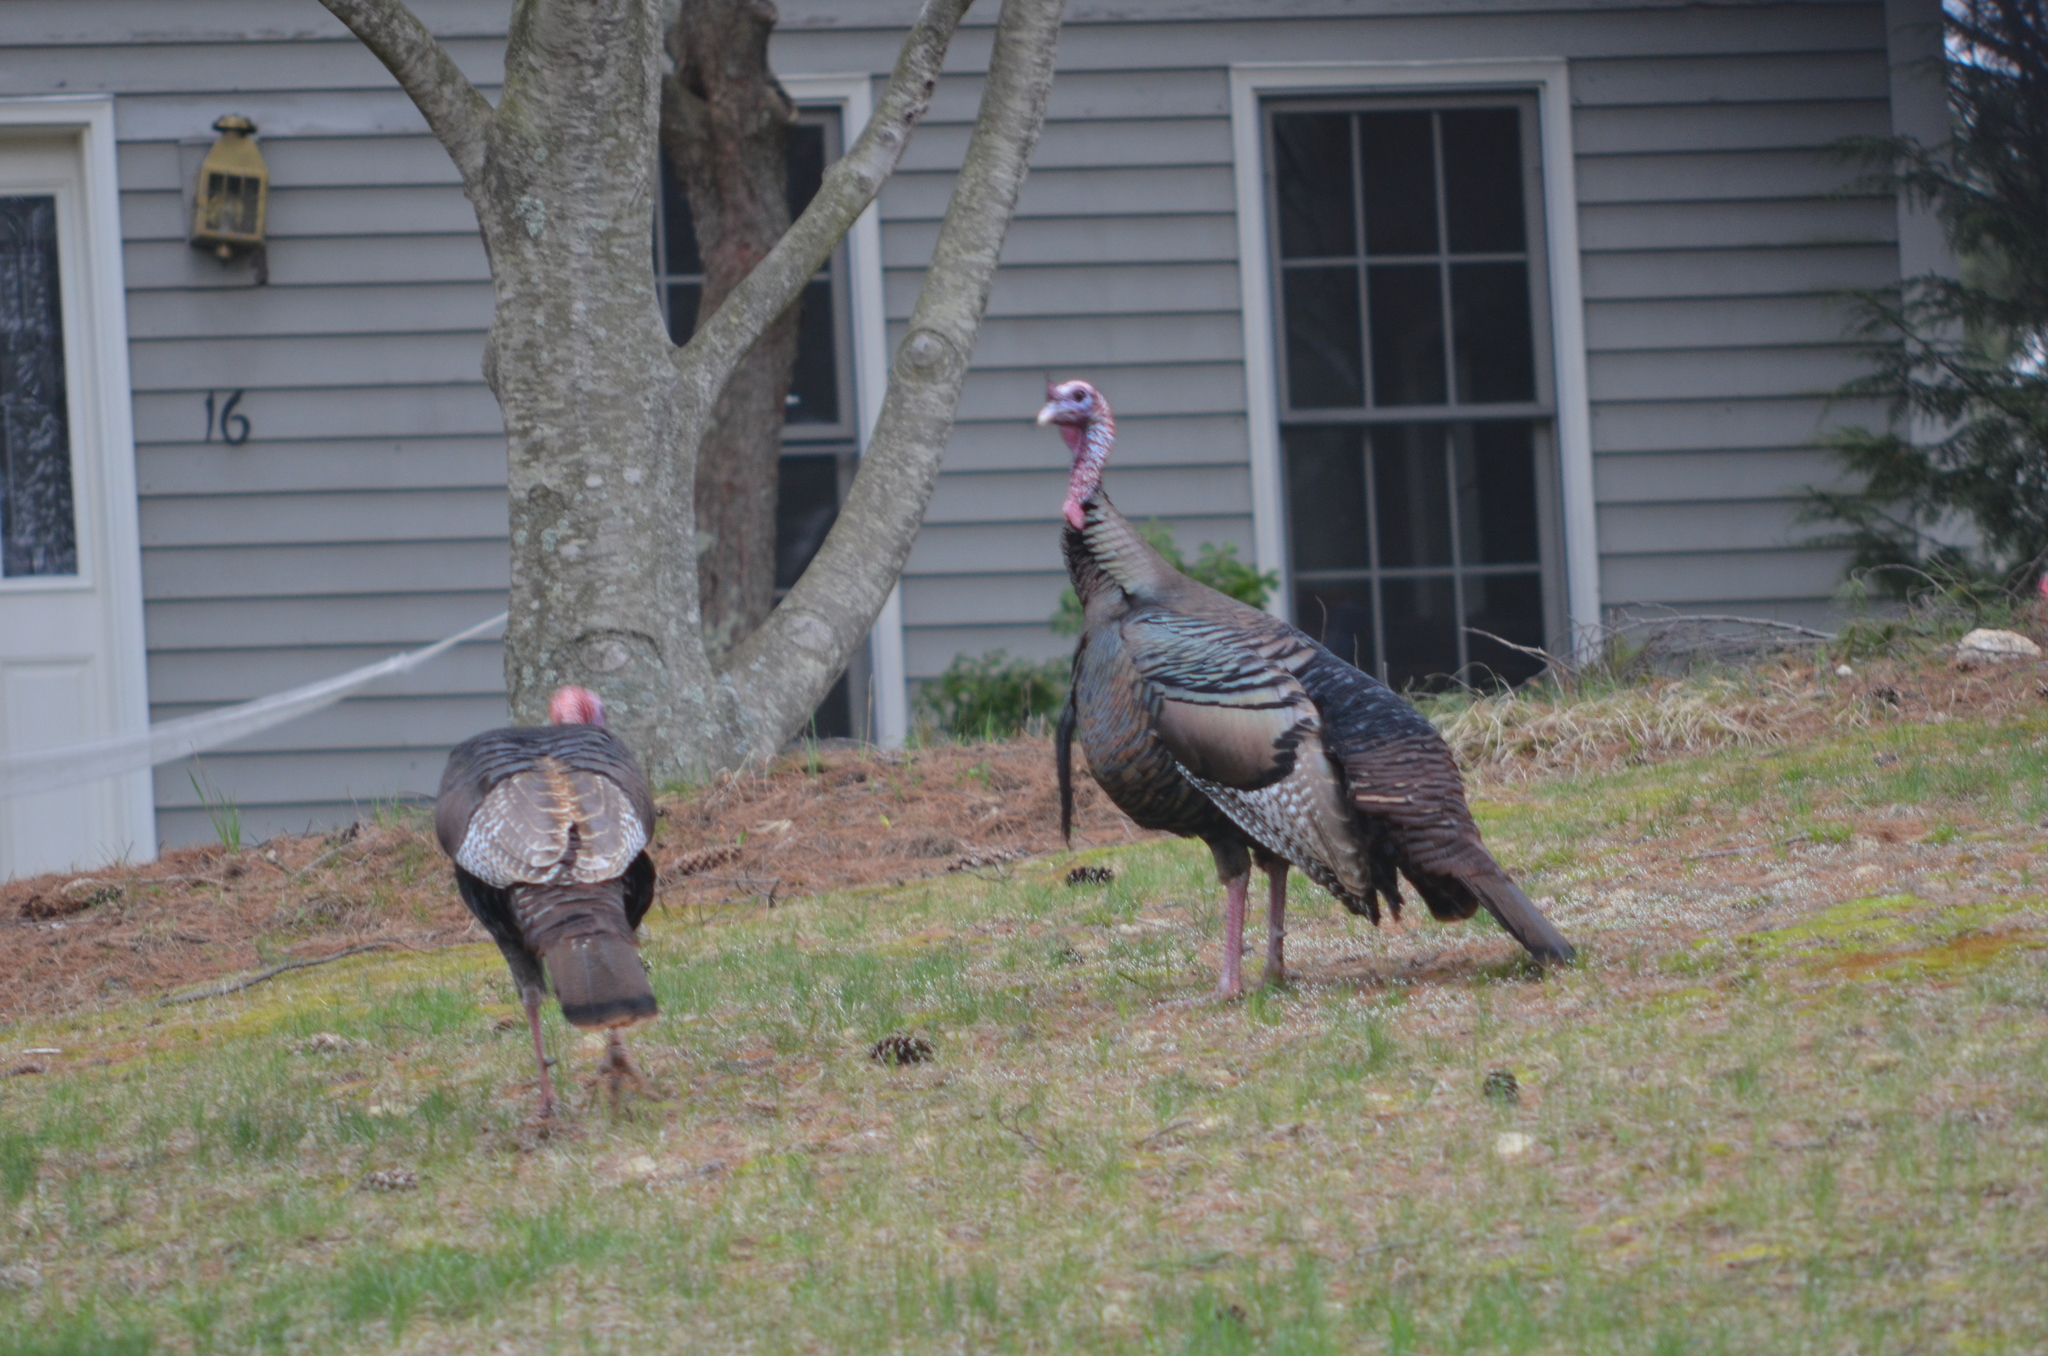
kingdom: Animalia
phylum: Chordata
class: Aves
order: Galliformes
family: Phasianidae
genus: Meleagris
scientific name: Meleagris gallopavo
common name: Wild turkey
